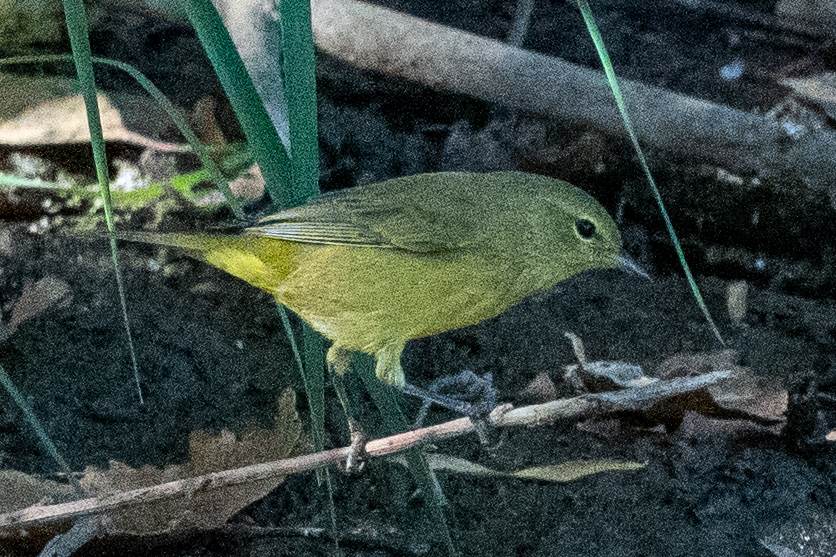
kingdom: Animalia
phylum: Chordata
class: Aves
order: Passeriformes
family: Parulidae
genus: Leiothlypis
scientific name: Leiothlypis celata
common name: Orange-crowned warbler
